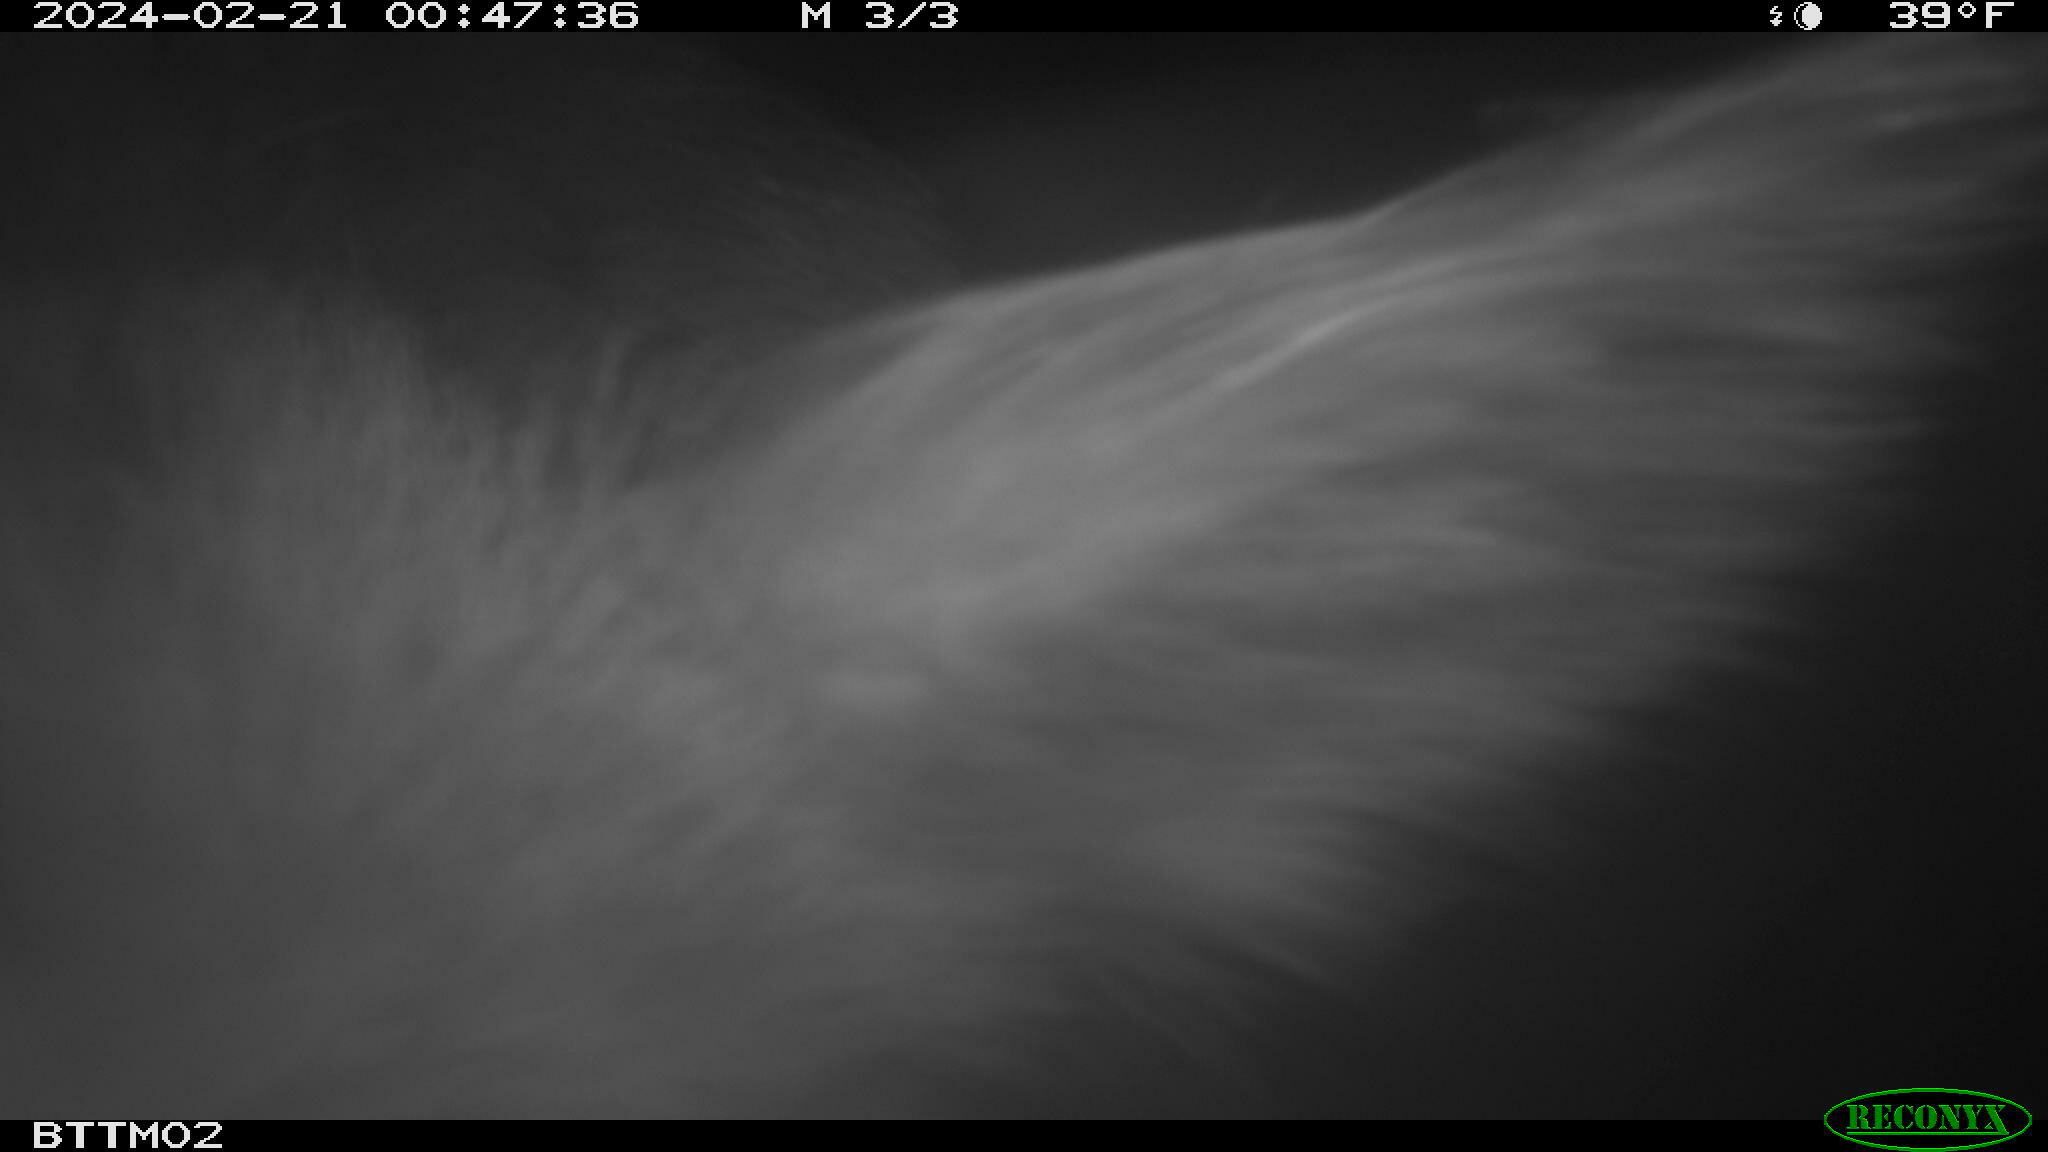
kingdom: Animalia
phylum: Chordata
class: Mammalia
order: Artiodactyla
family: Suidae
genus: Sus
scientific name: Sus scrofa
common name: Wild boar
